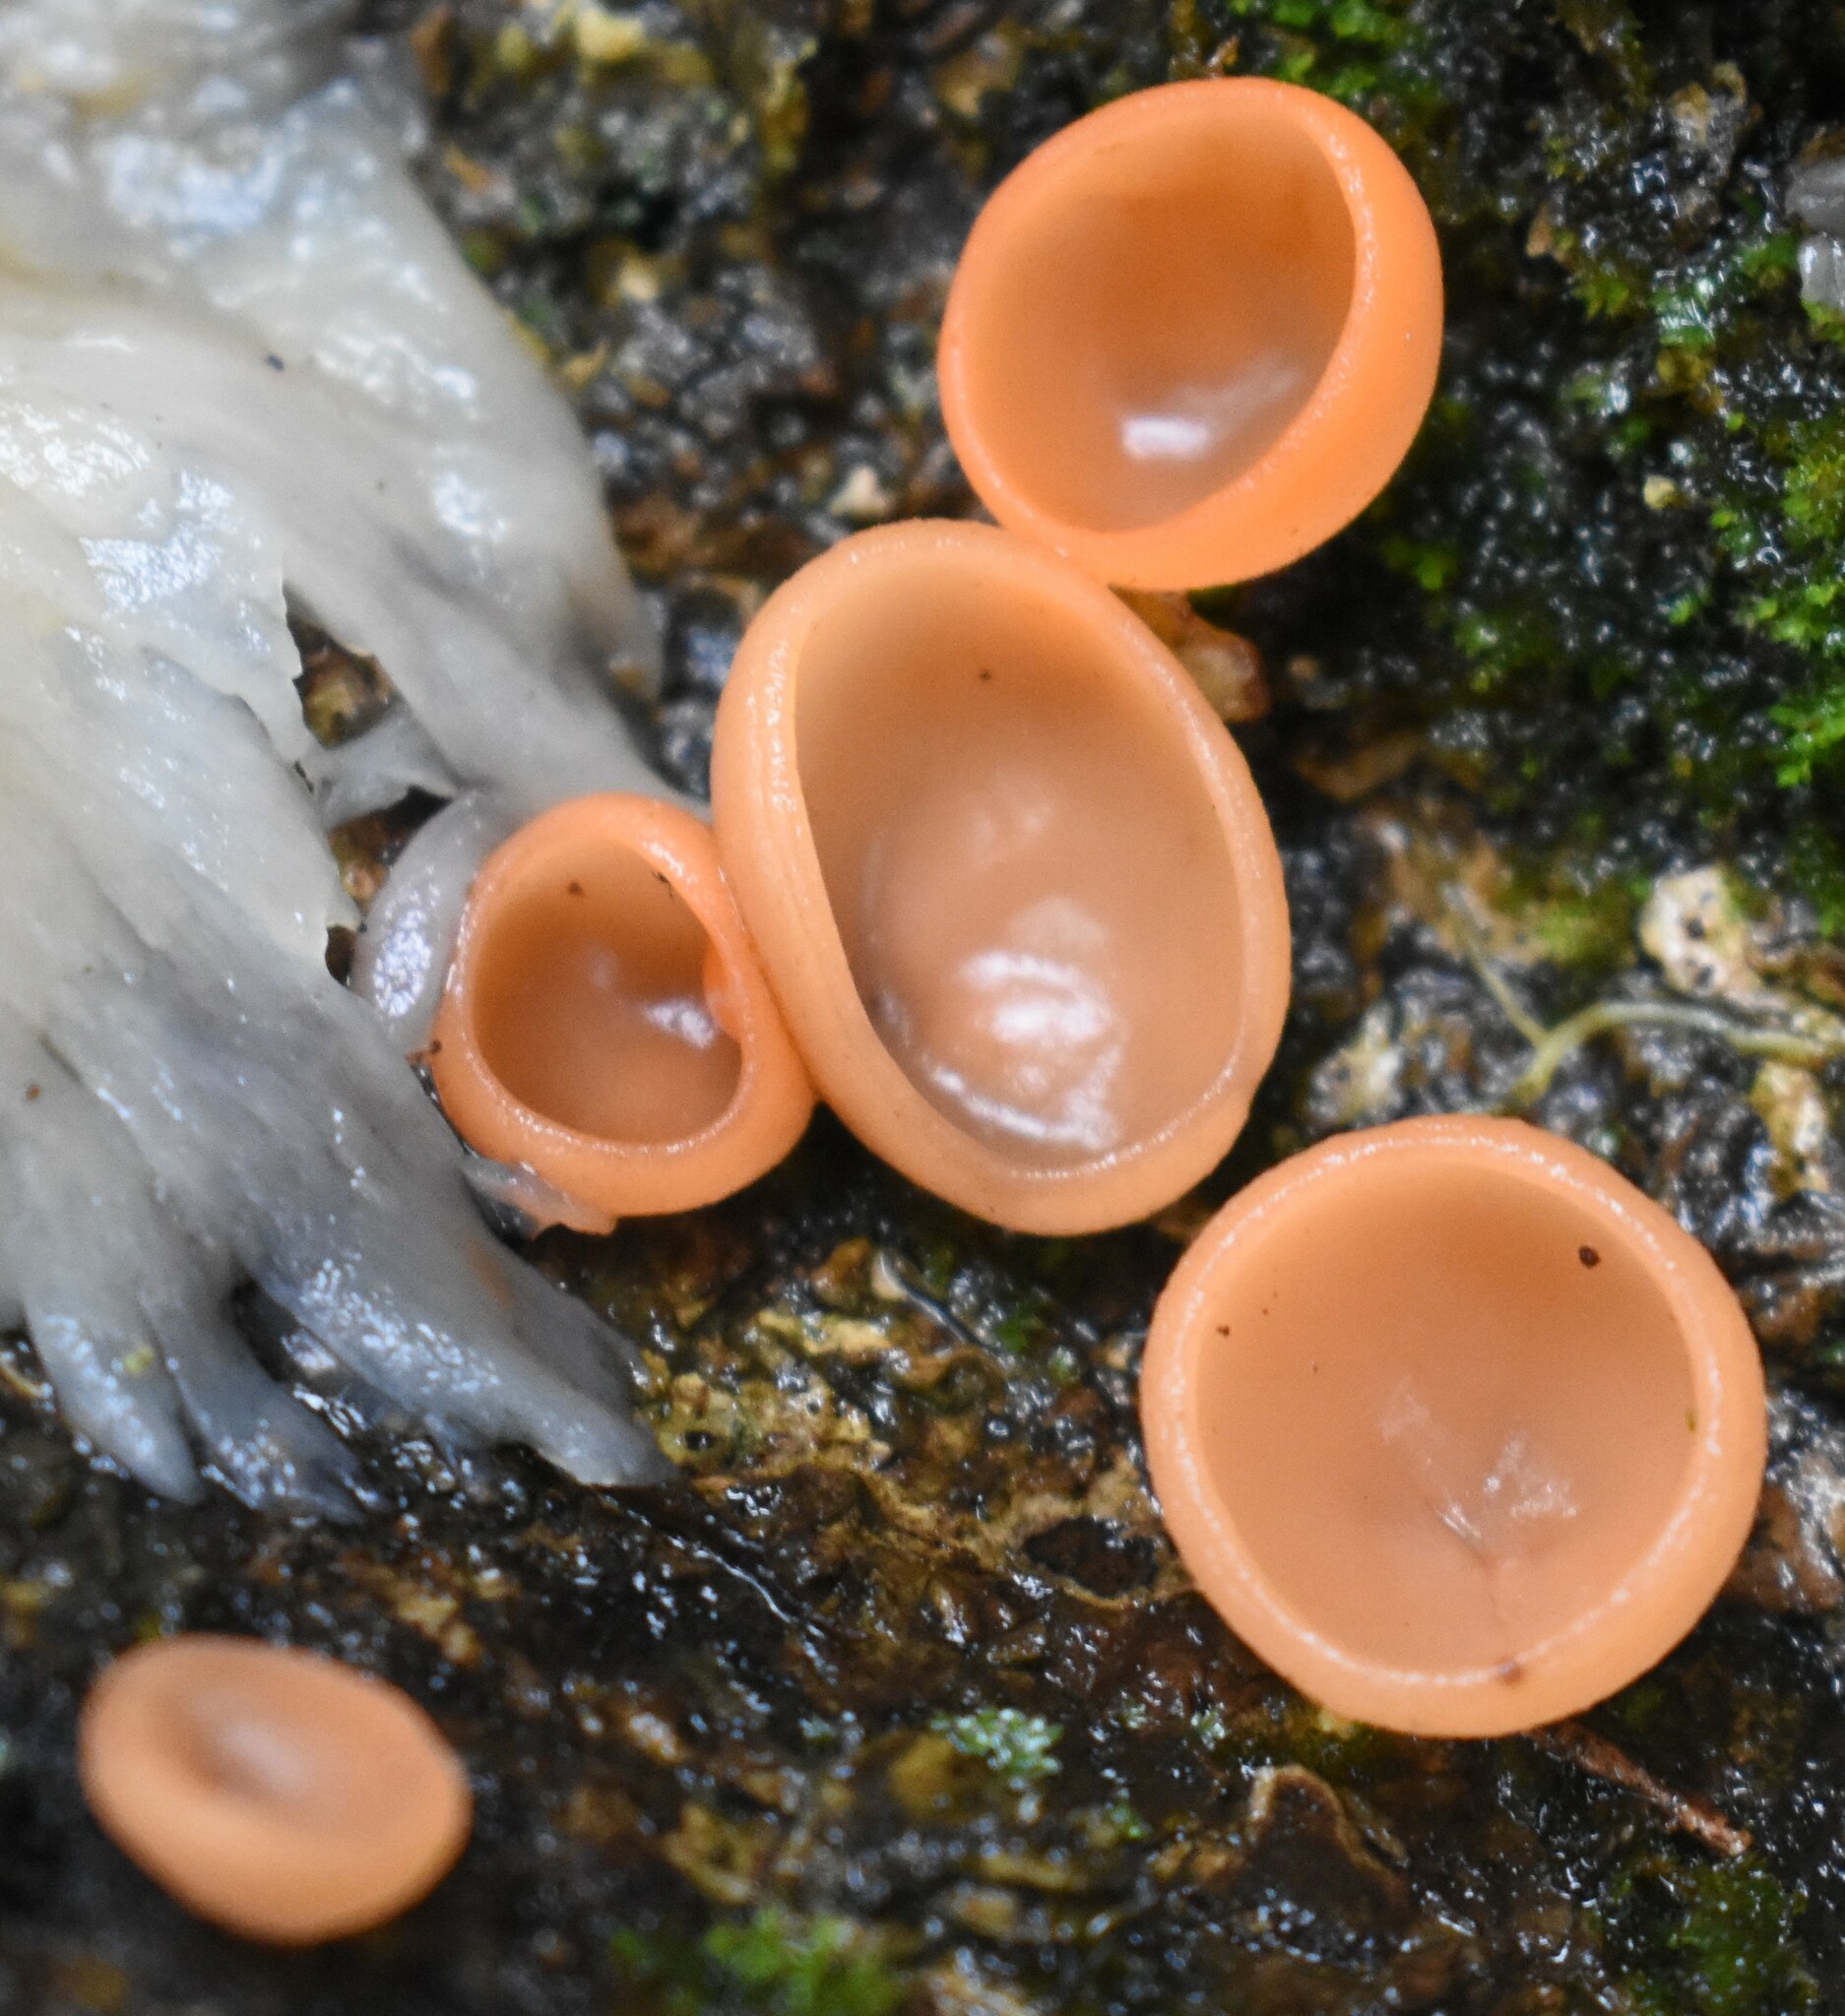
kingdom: Fungi
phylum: Ascomycota
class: Pezizomycetes
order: Pezizales
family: Sarcoscyphaceae
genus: Cookeina
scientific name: Cookeina venezuelae
